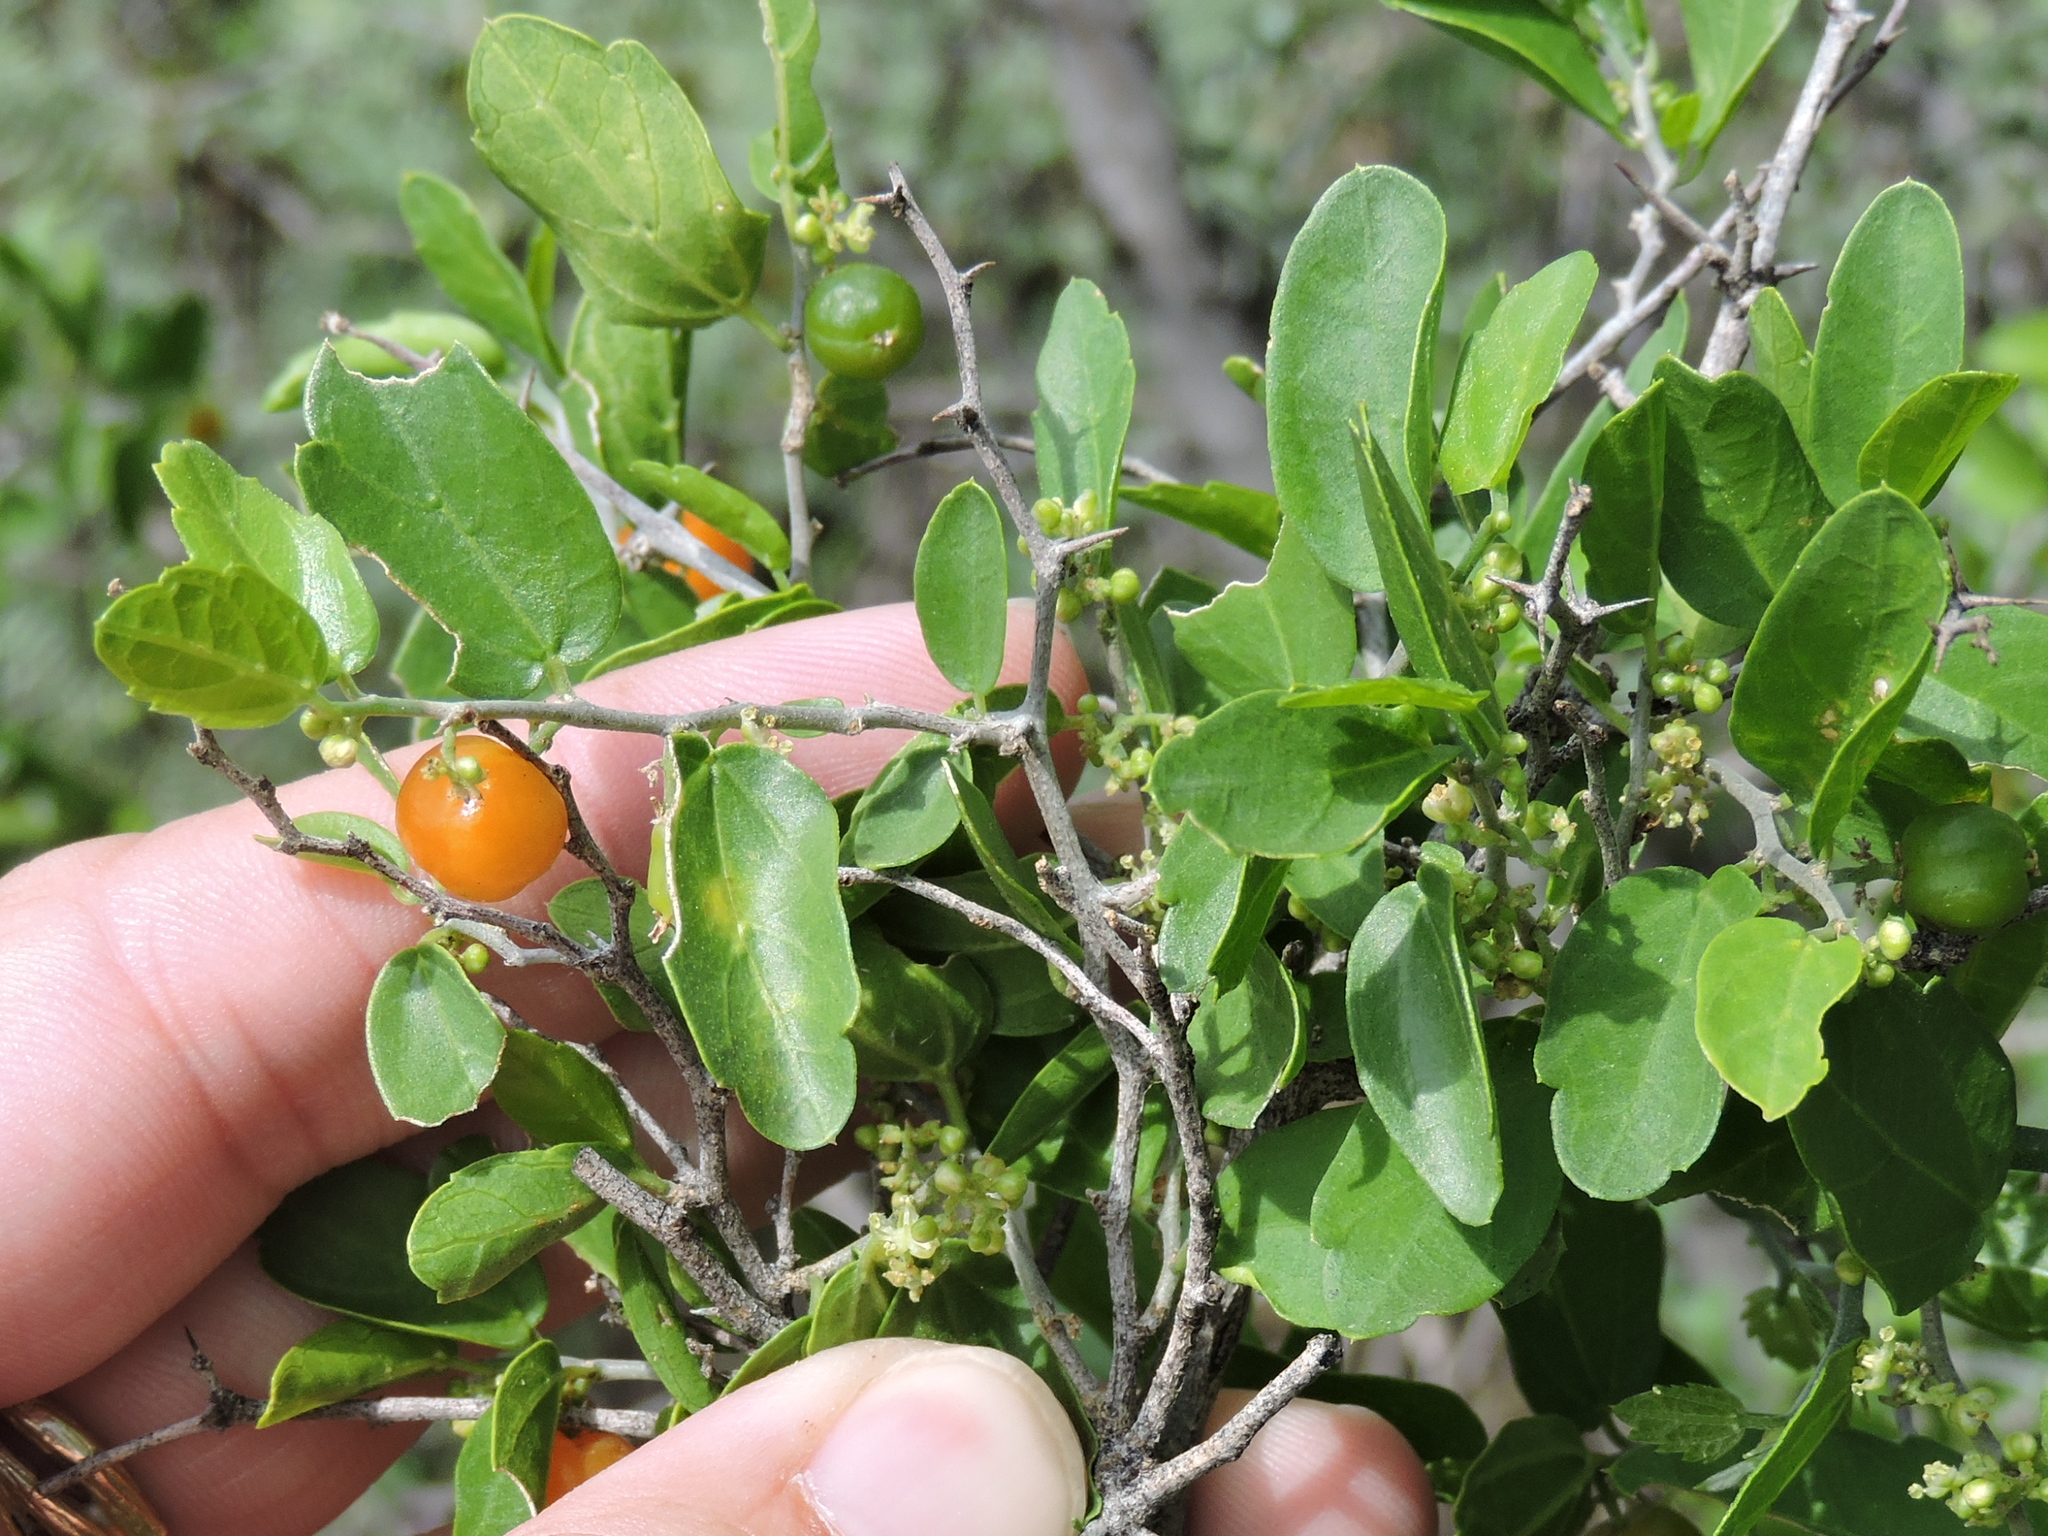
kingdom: Plantae
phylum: Tracheophyta
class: Magnoliopsida
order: Rosales
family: Cannabaceae
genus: Celtis
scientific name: Celtis pallida
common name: Desert hackberry
